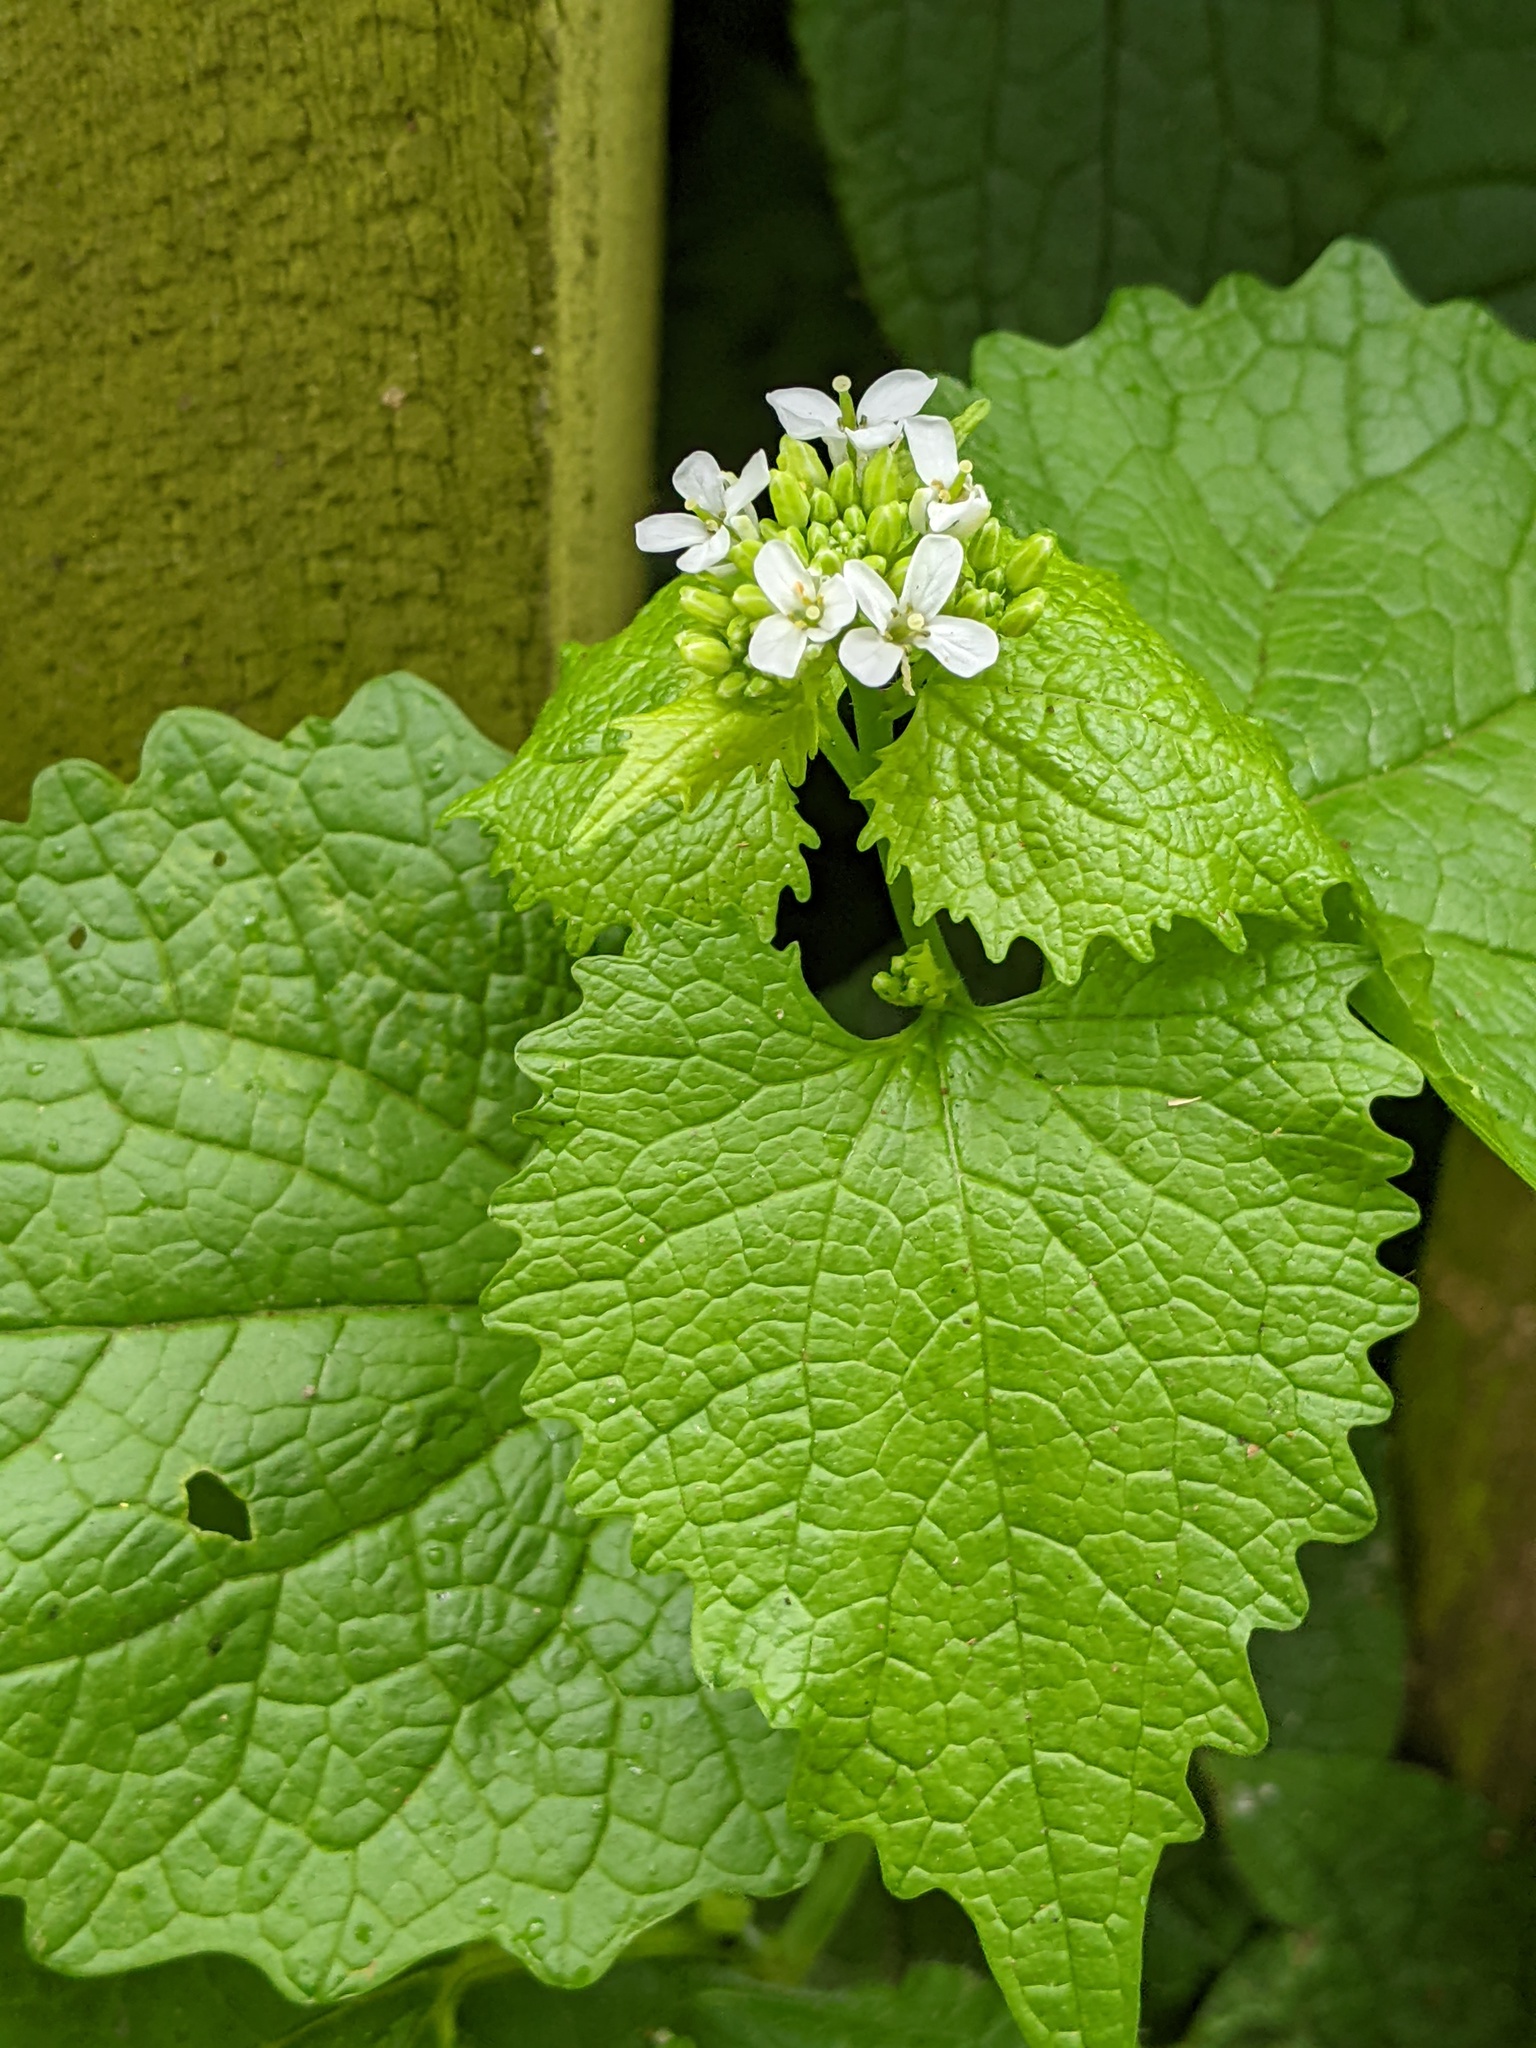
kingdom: Plantae
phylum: Tracheophyta
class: Magnoliopsida
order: Brassicales
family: Brassicaceae
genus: Alliaria
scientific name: Alliaria petiolata
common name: Garlic mustard
